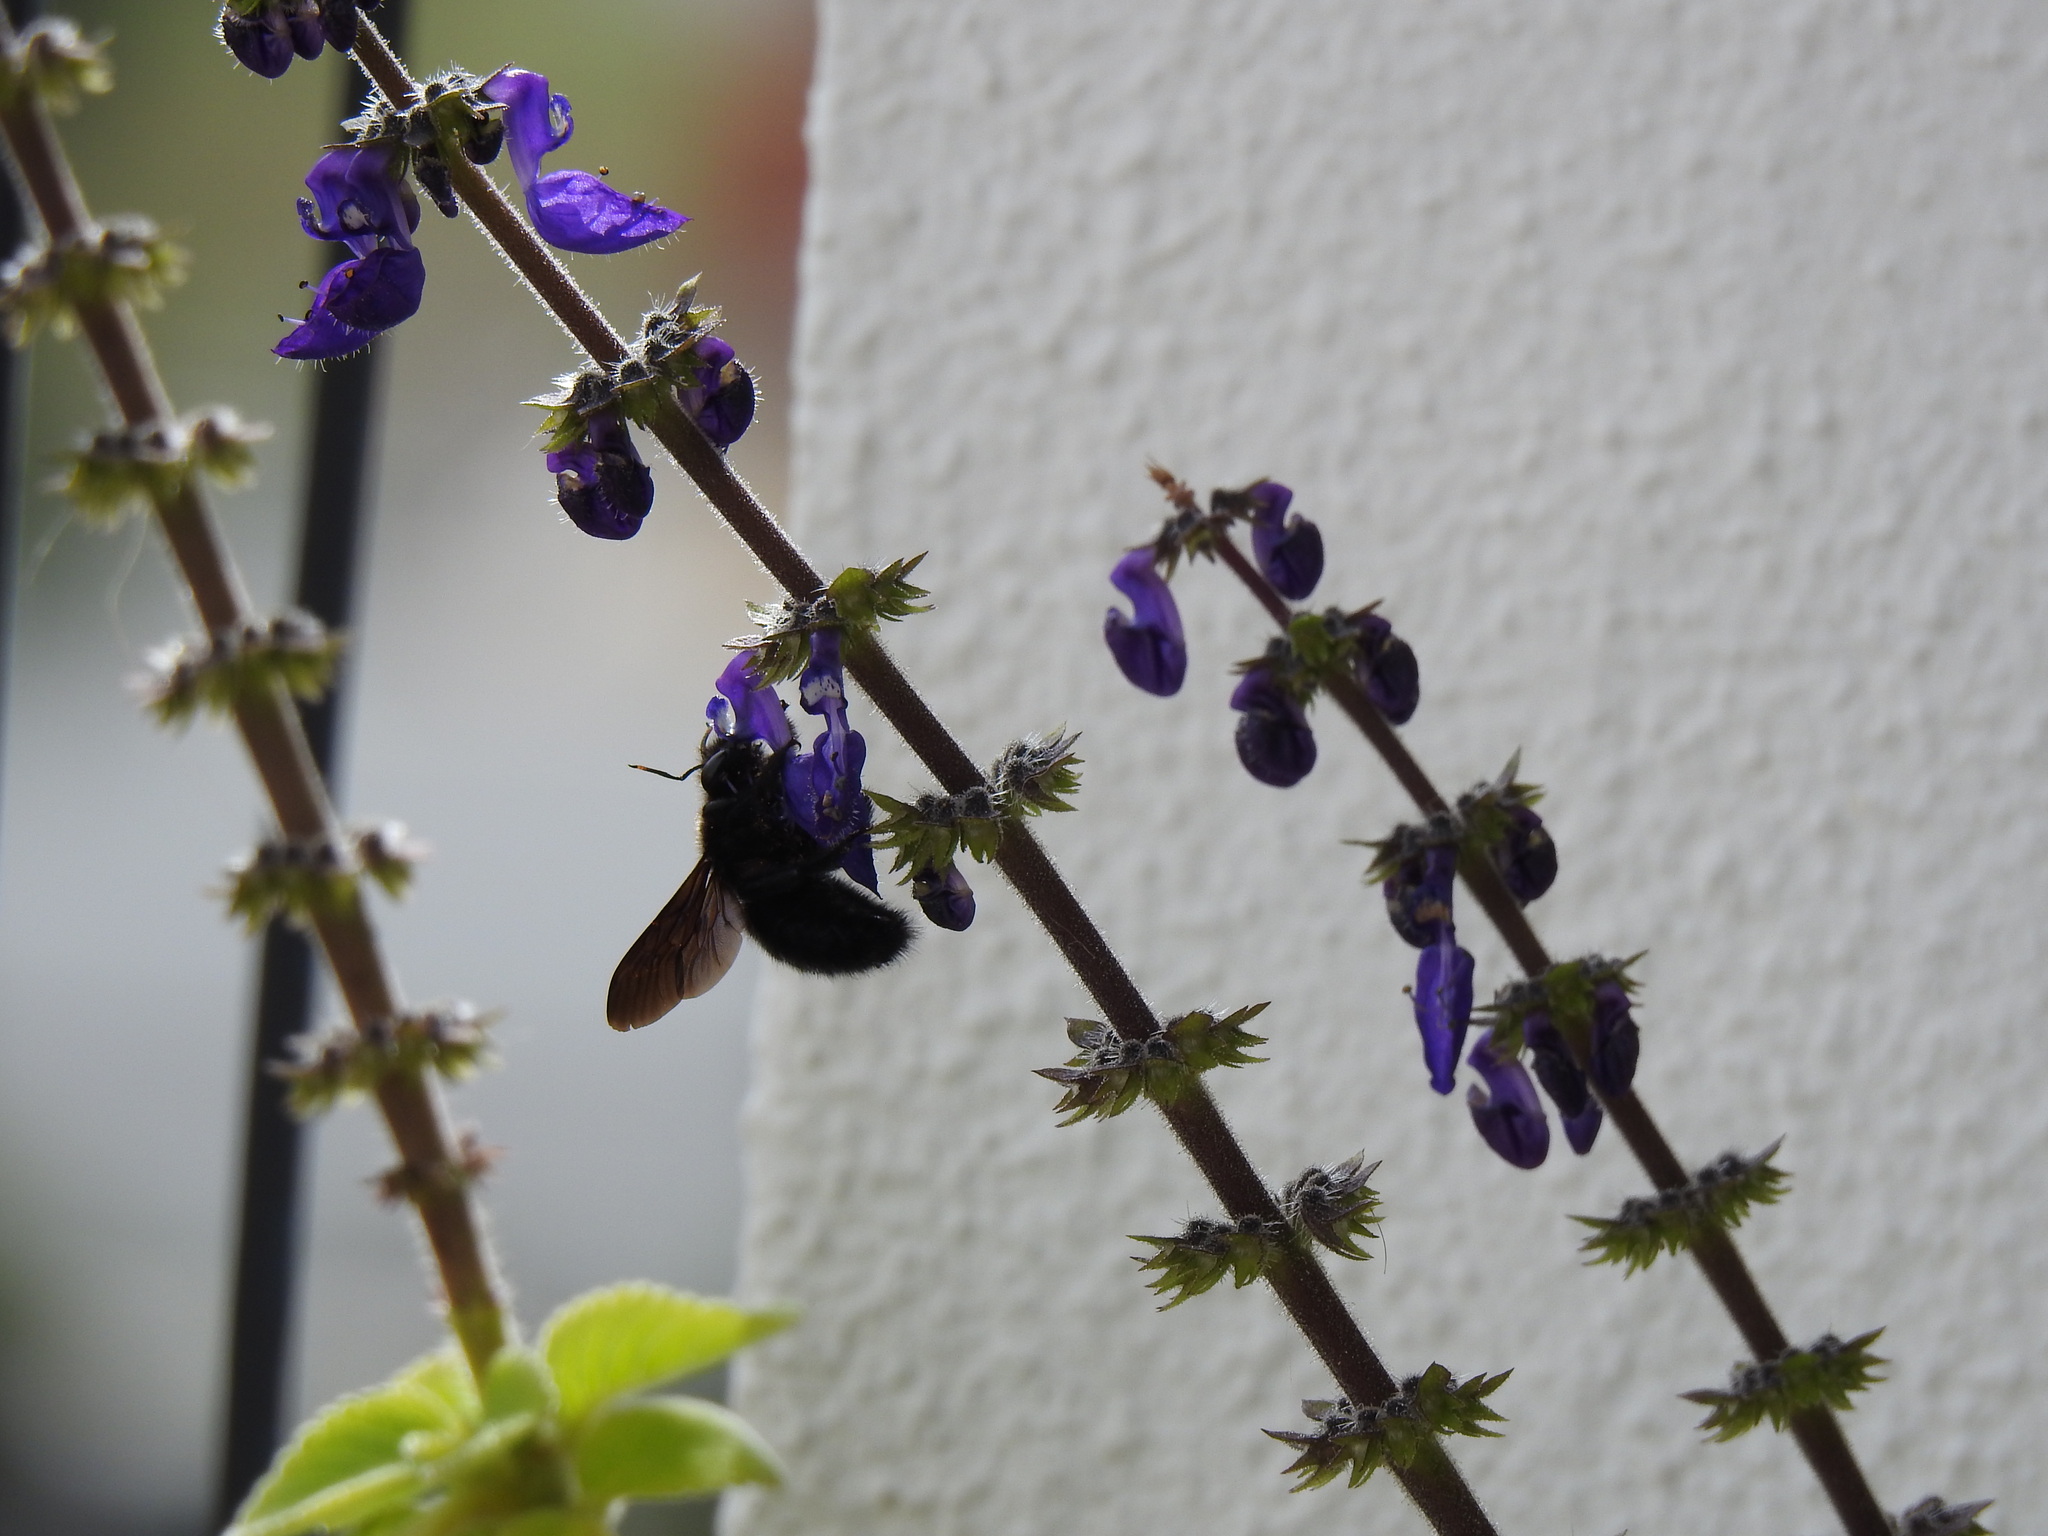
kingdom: Animalia
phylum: Arthropoda
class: Insecta
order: Hymenoptera
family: Apidae
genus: Xylocopa
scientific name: Xylocopa violacea
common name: Violet carpenter bee
